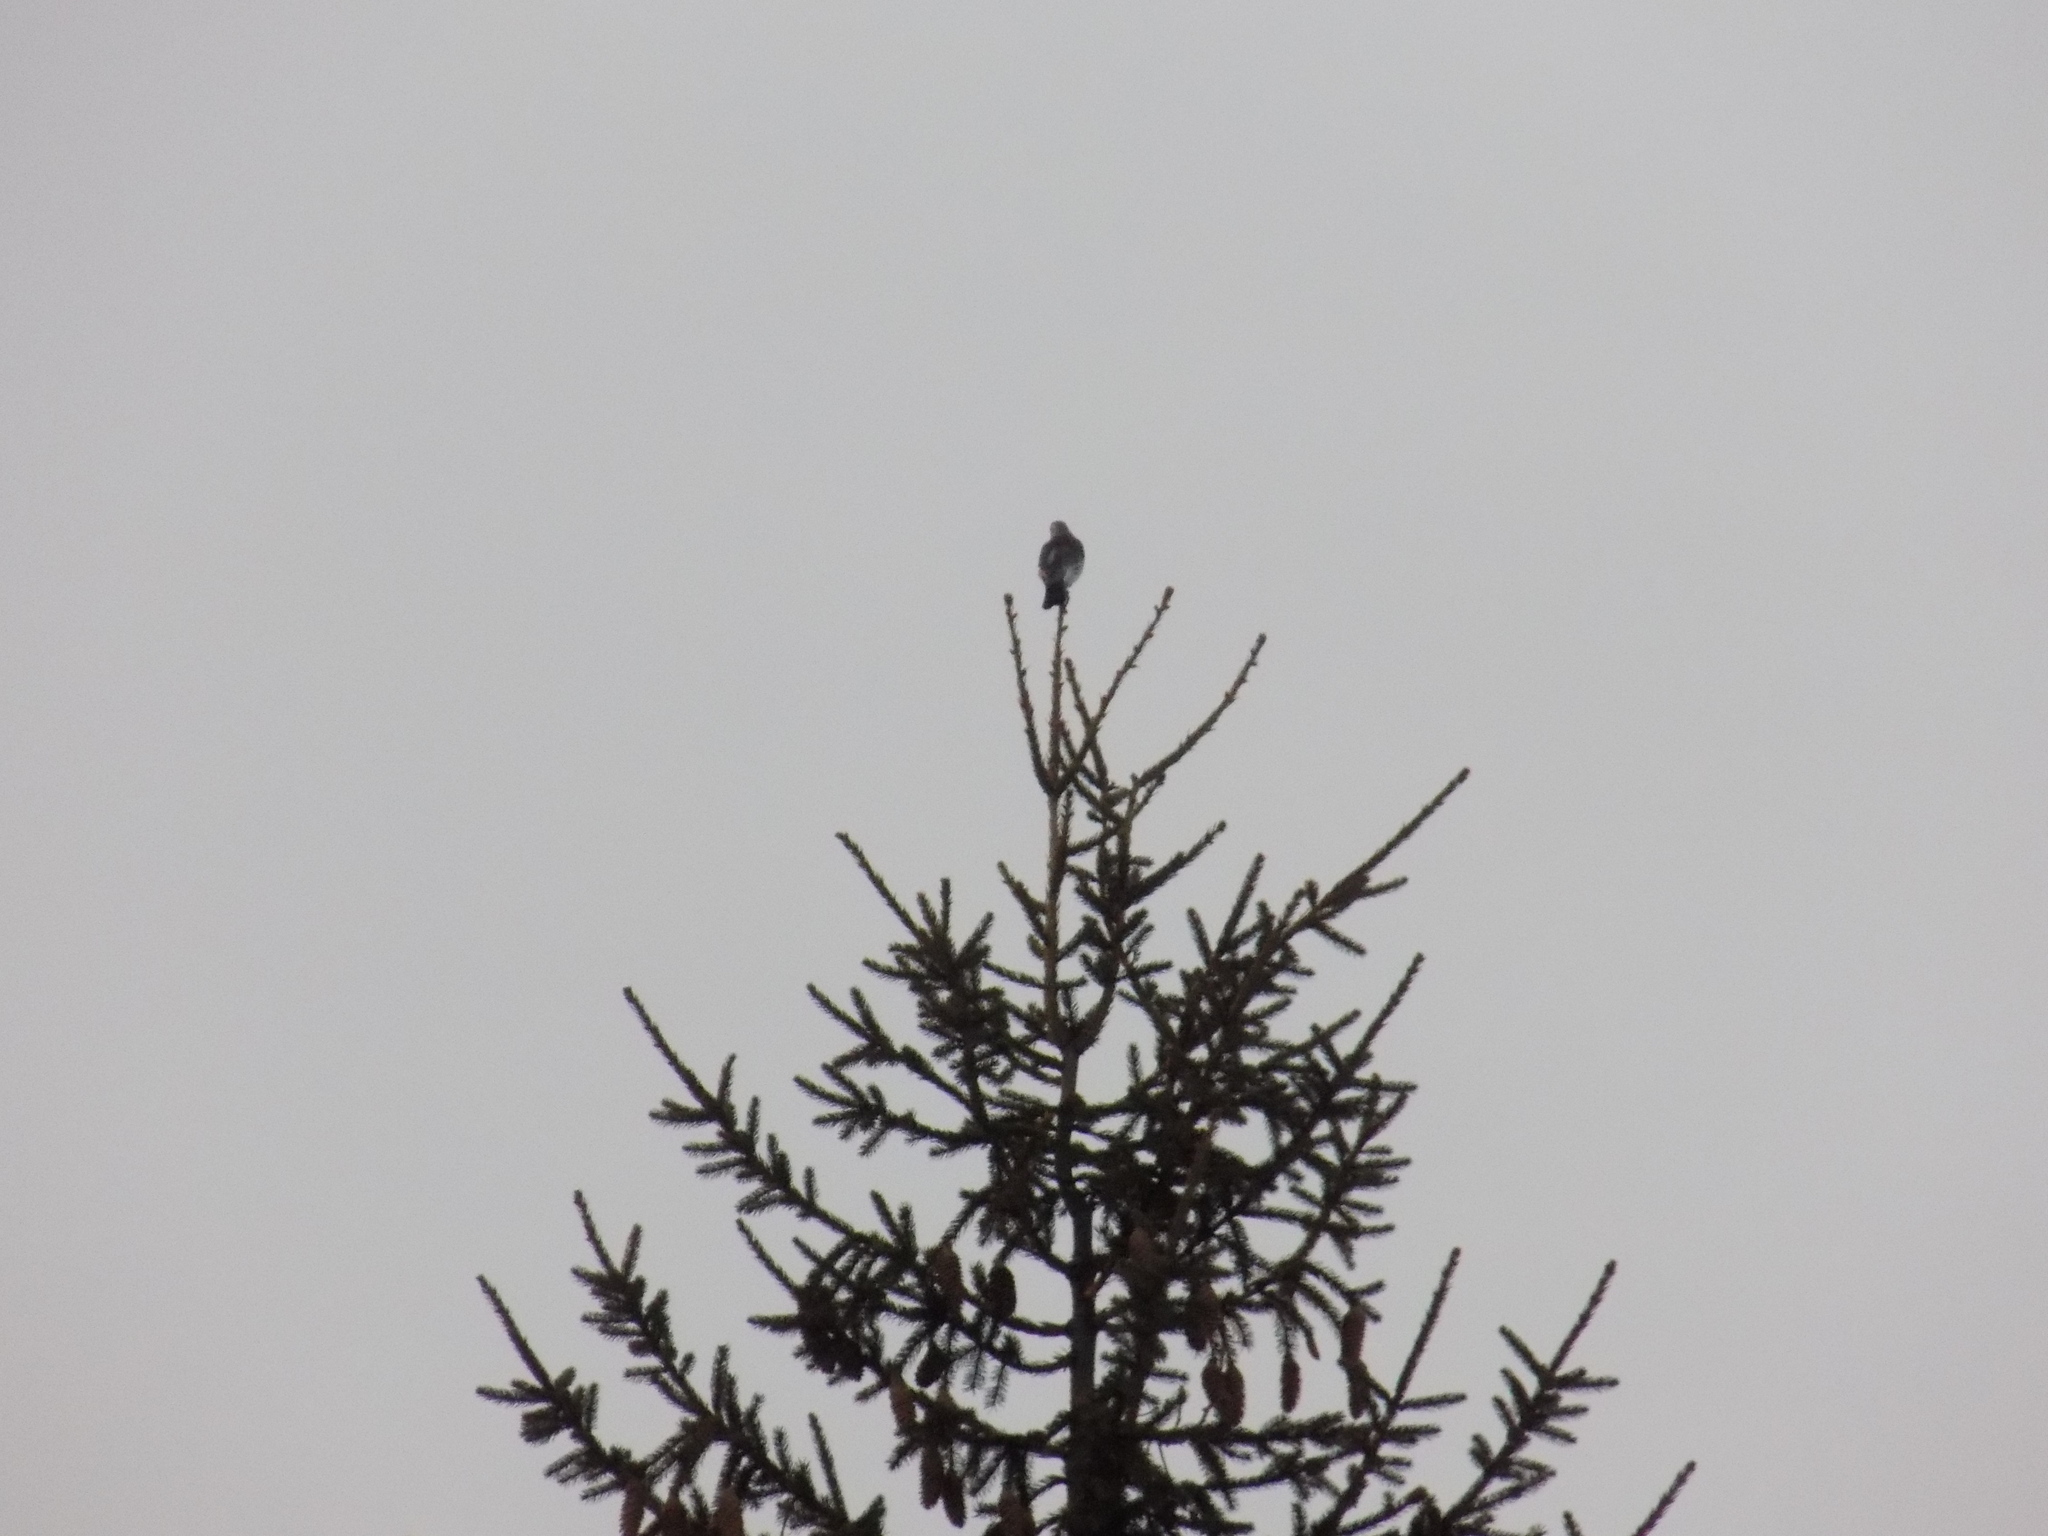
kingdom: Animalia
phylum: Chordata
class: Aves
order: Passeriformes
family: Turdidae
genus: Turdus
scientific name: Turdus pilaris
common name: Fieldfare
